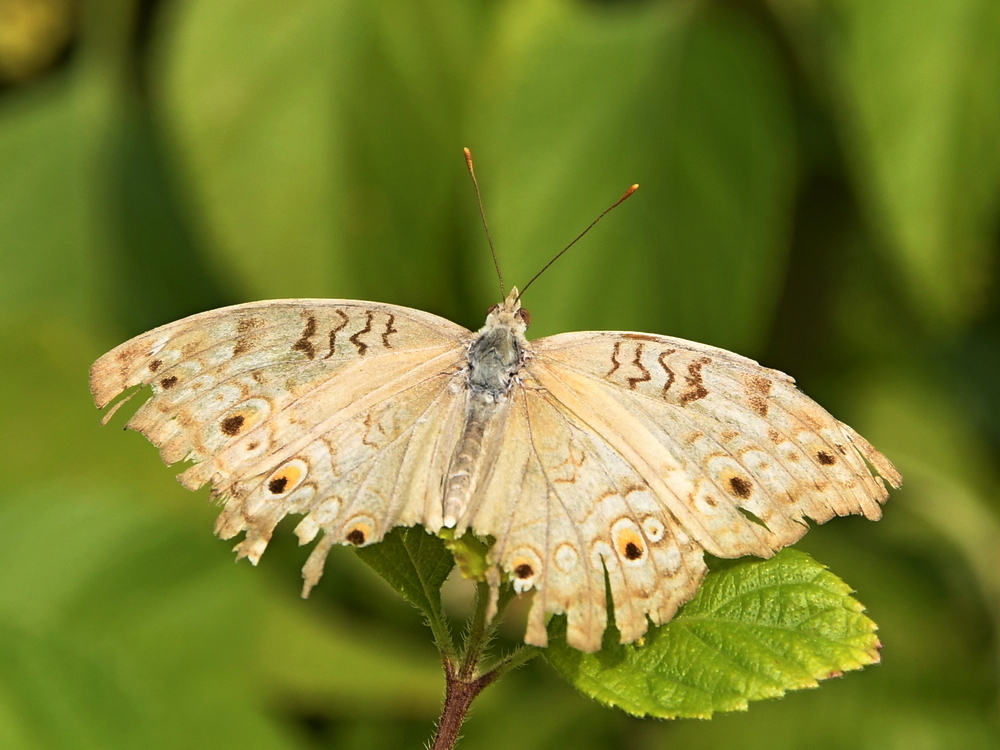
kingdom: Animalia
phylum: Arthropoda
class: Insecta
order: Lepidoptera
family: Nymphalidae
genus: Junonia
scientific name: Junonia atlites
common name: Grey pansy
